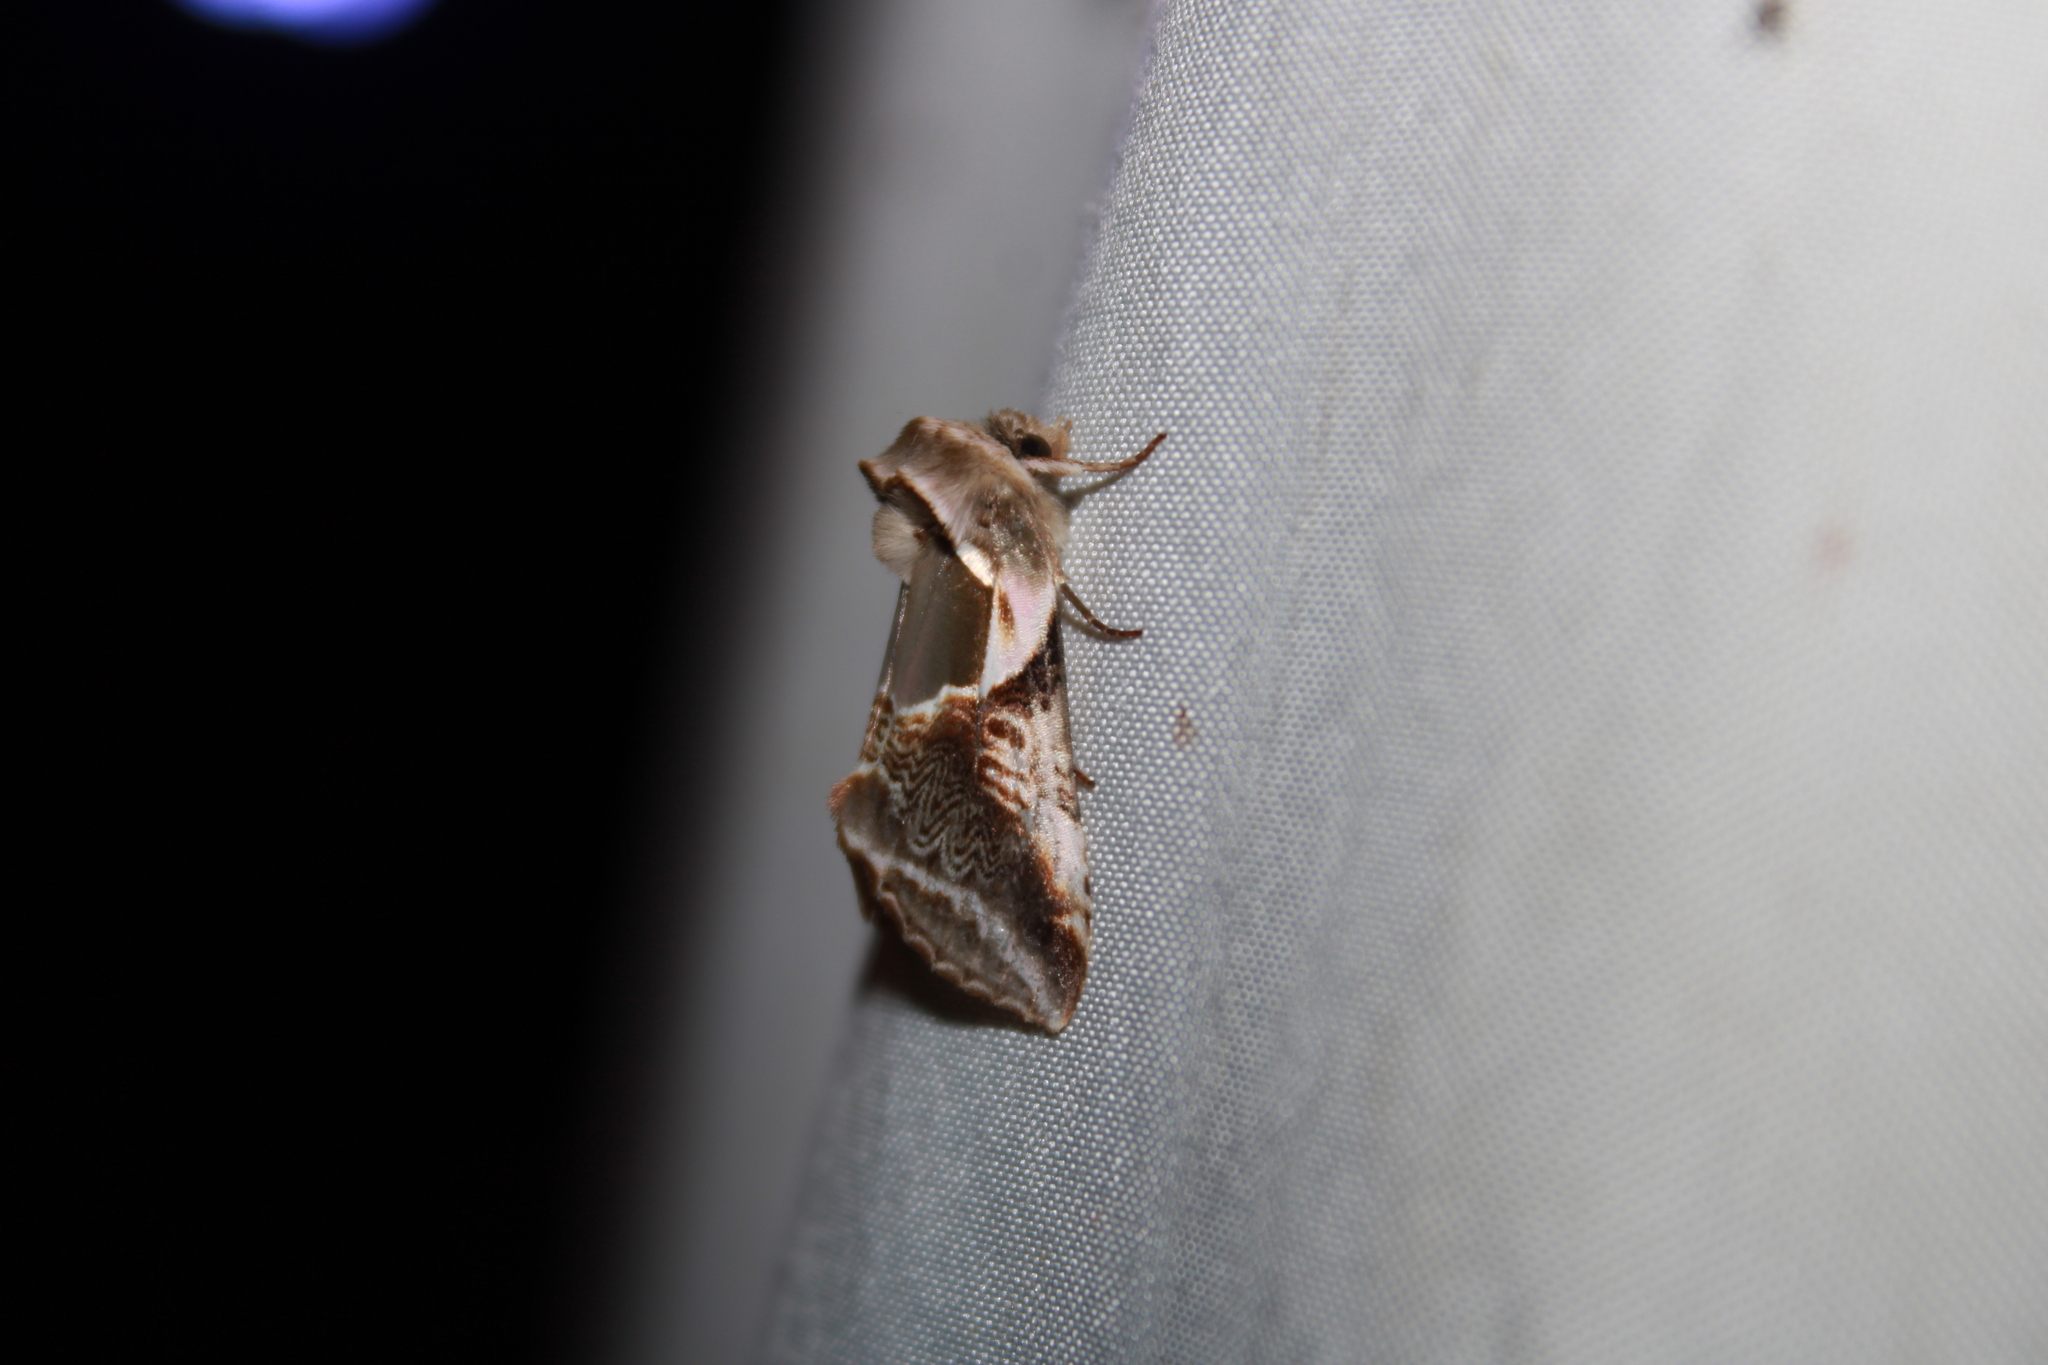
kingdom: Animalia
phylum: Arthropoda
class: Insecta
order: Lepidoptera
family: Drepanidae
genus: Habrosyne
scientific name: Habrosyne scripta
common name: Lettered habrosyne moth
